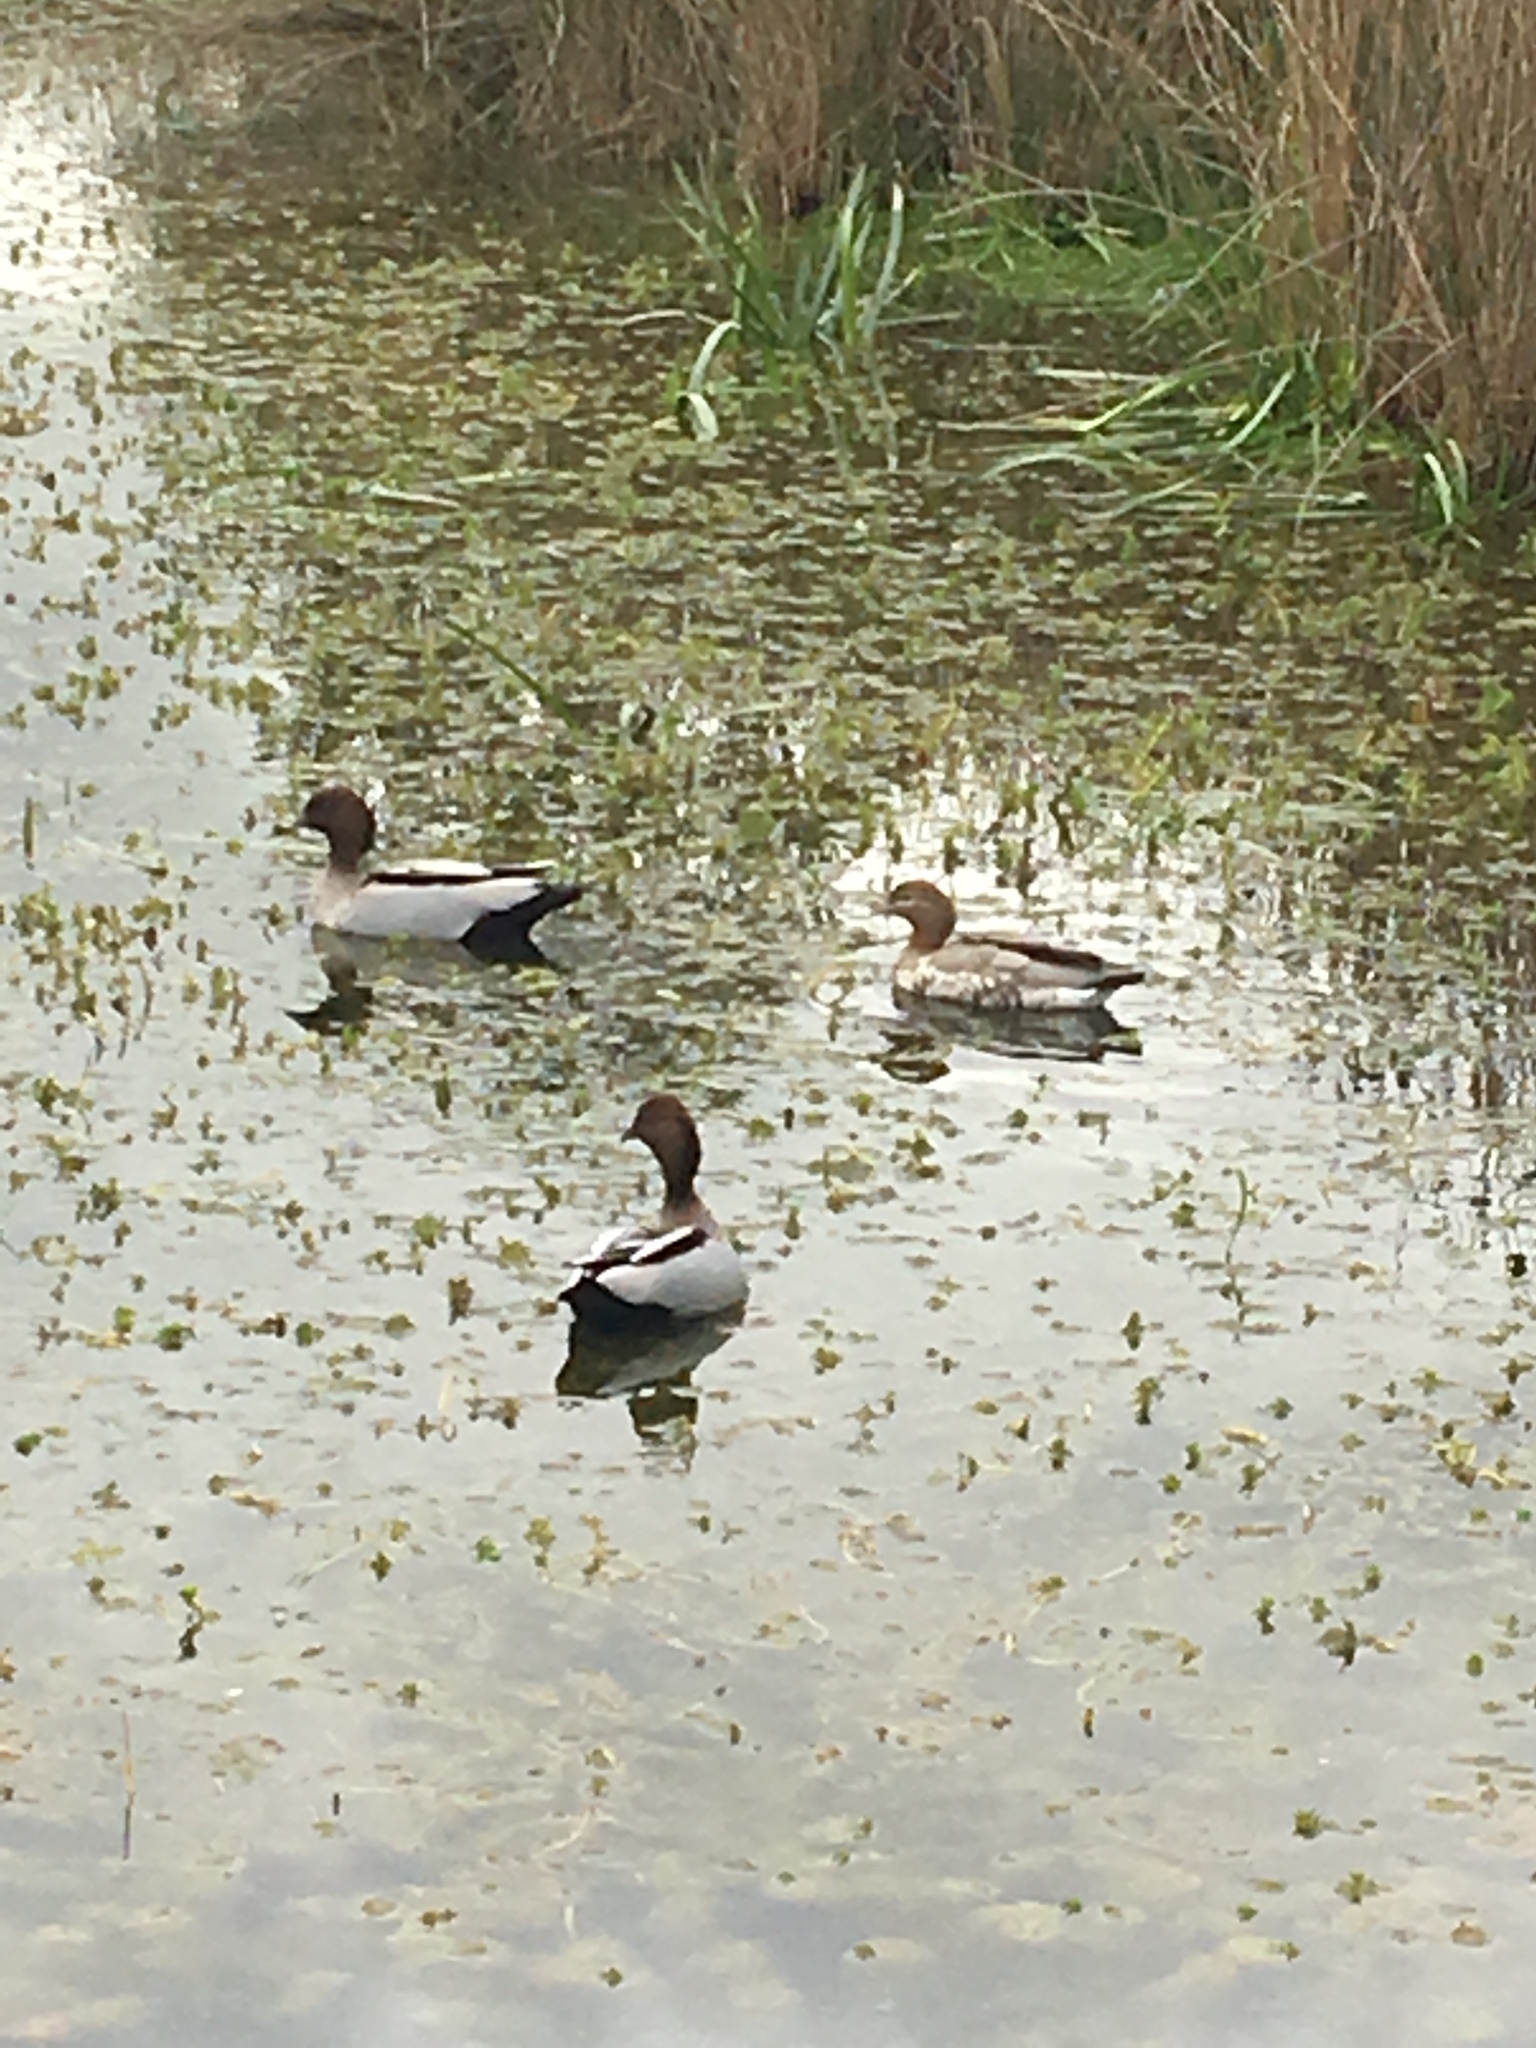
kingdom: Animalia
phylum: Chordata
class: Aves
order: Anseriformes
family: Anatidae
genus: Chenonetta
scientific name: Chenonetta jubata
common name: Maned duck
